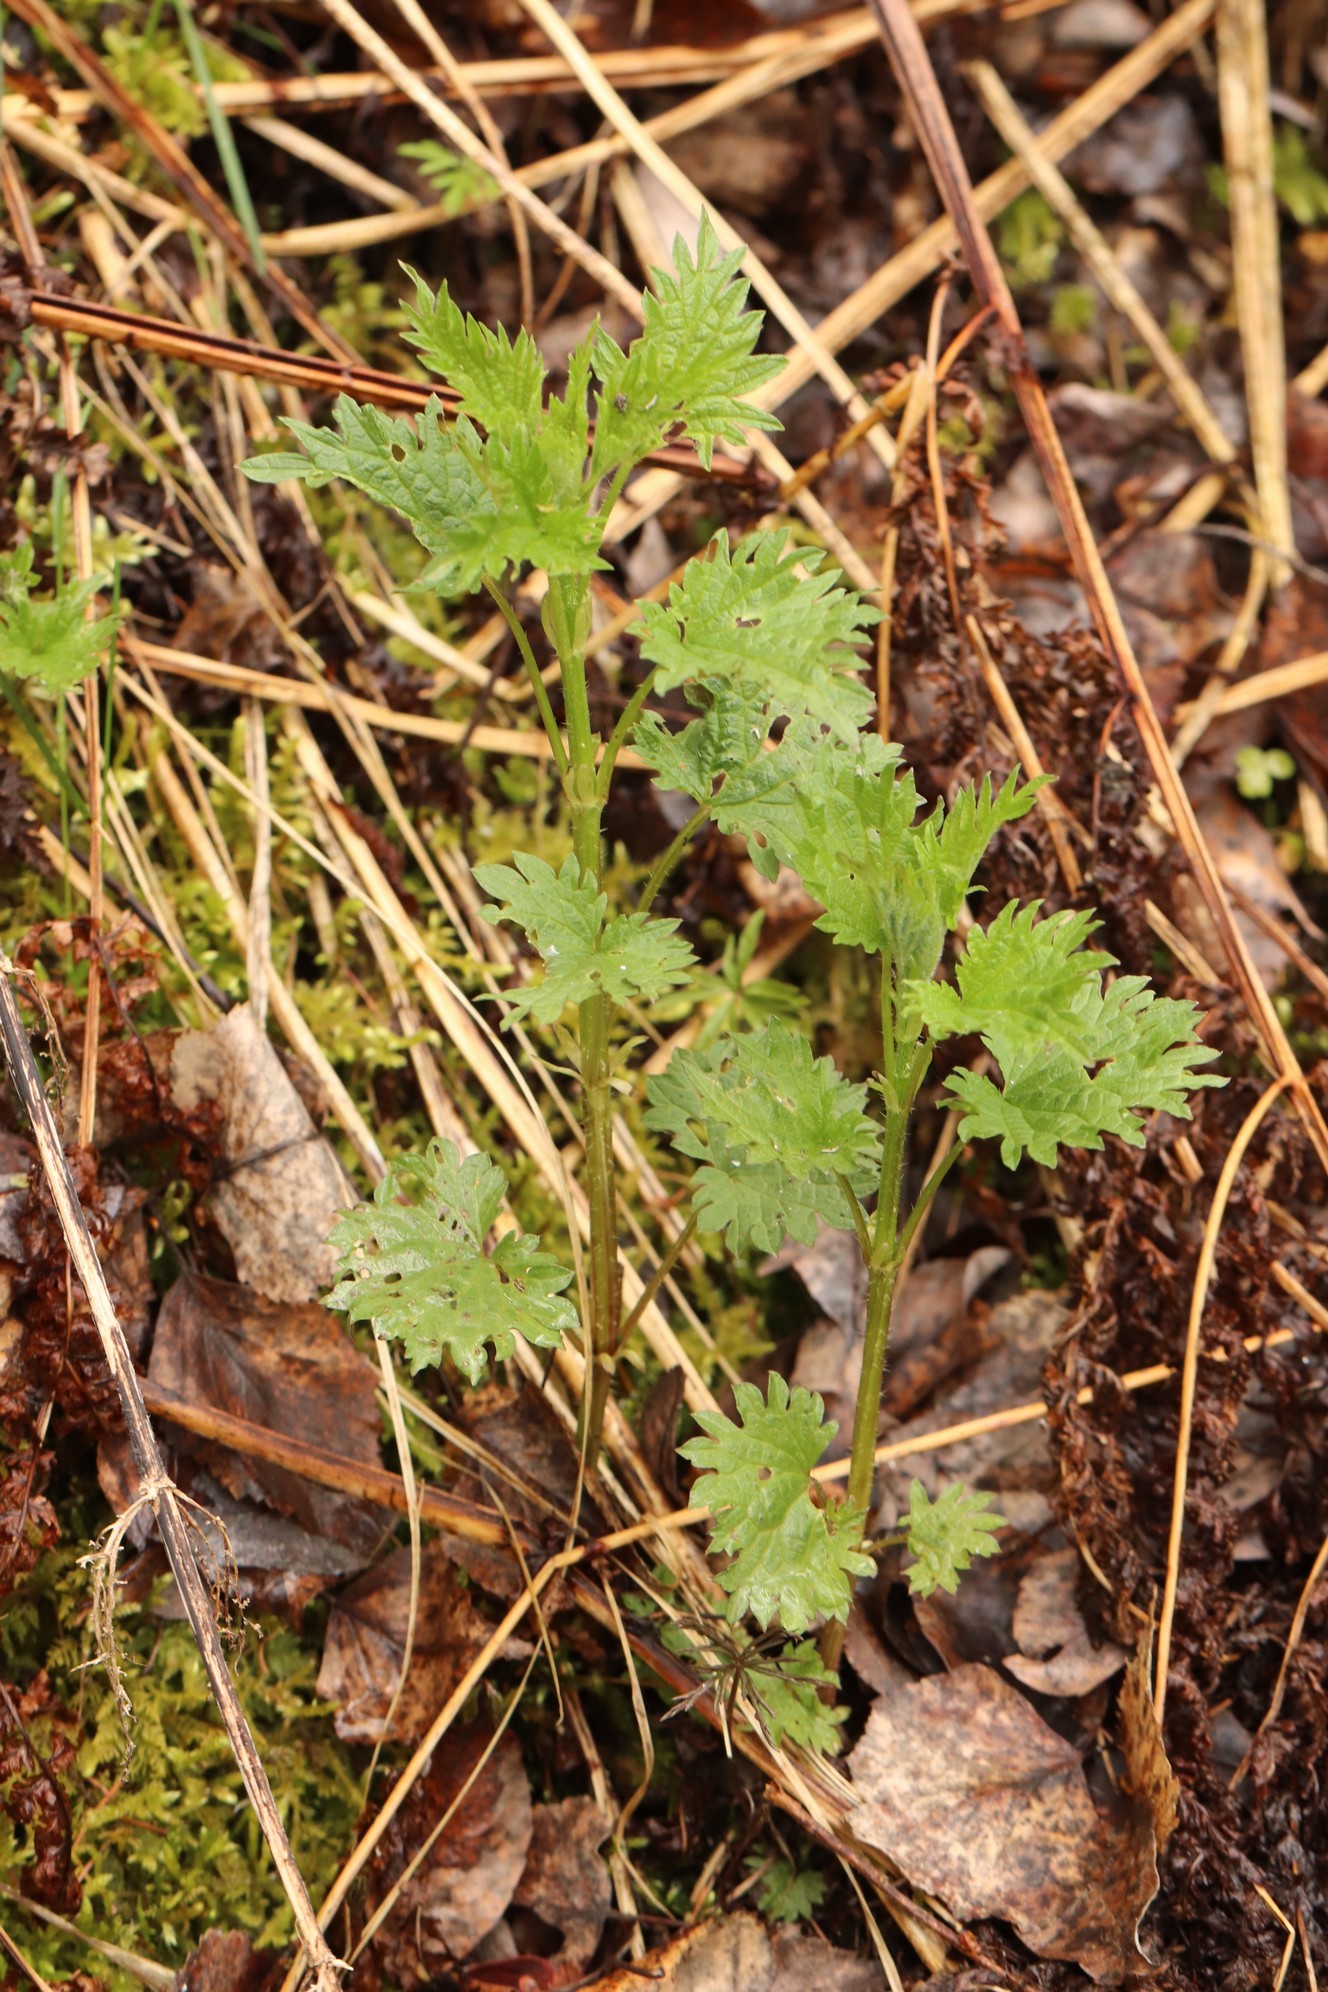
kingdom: Plantae
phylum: Tracheophyta
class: Magnoliopsida
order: Rosales
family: Urticaceae
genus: Urtica
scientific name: Urtica dioica
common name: Common nettle
